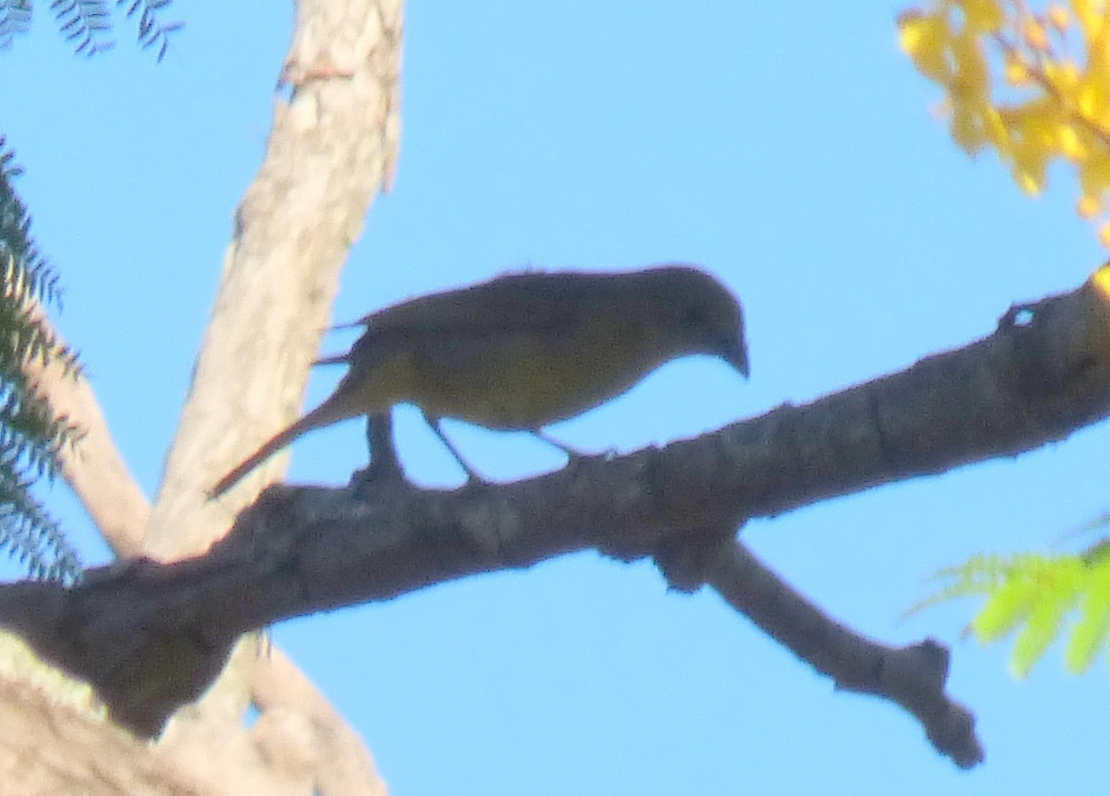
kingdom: Animalia
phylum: Chordata
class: Aves
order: Passeriformes
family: Cardinalidae
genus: Piranga
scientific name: Piranga flava
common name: Red tanager
